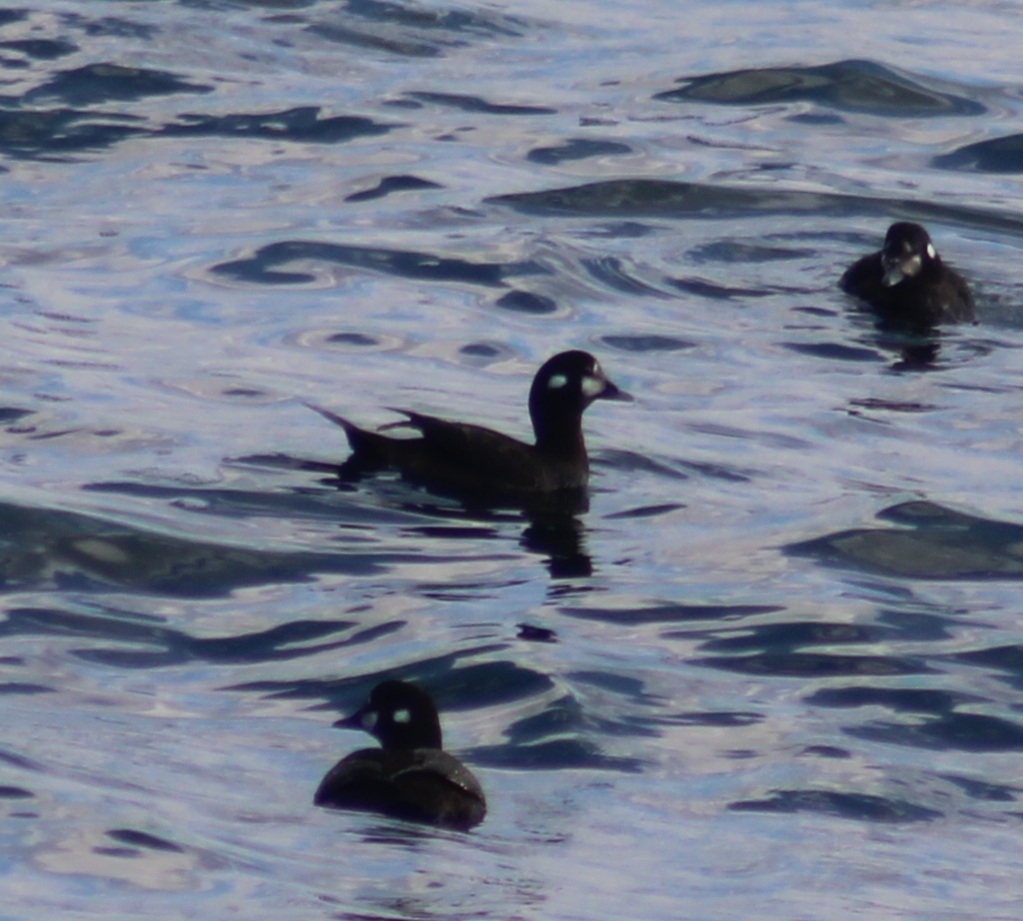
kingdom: Animalia
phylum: Chordata
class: Aves
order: Anseriformes
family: Anatidae
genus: Histrionicus
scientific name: Histrionicus histrionicus
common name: Harlequin duck
